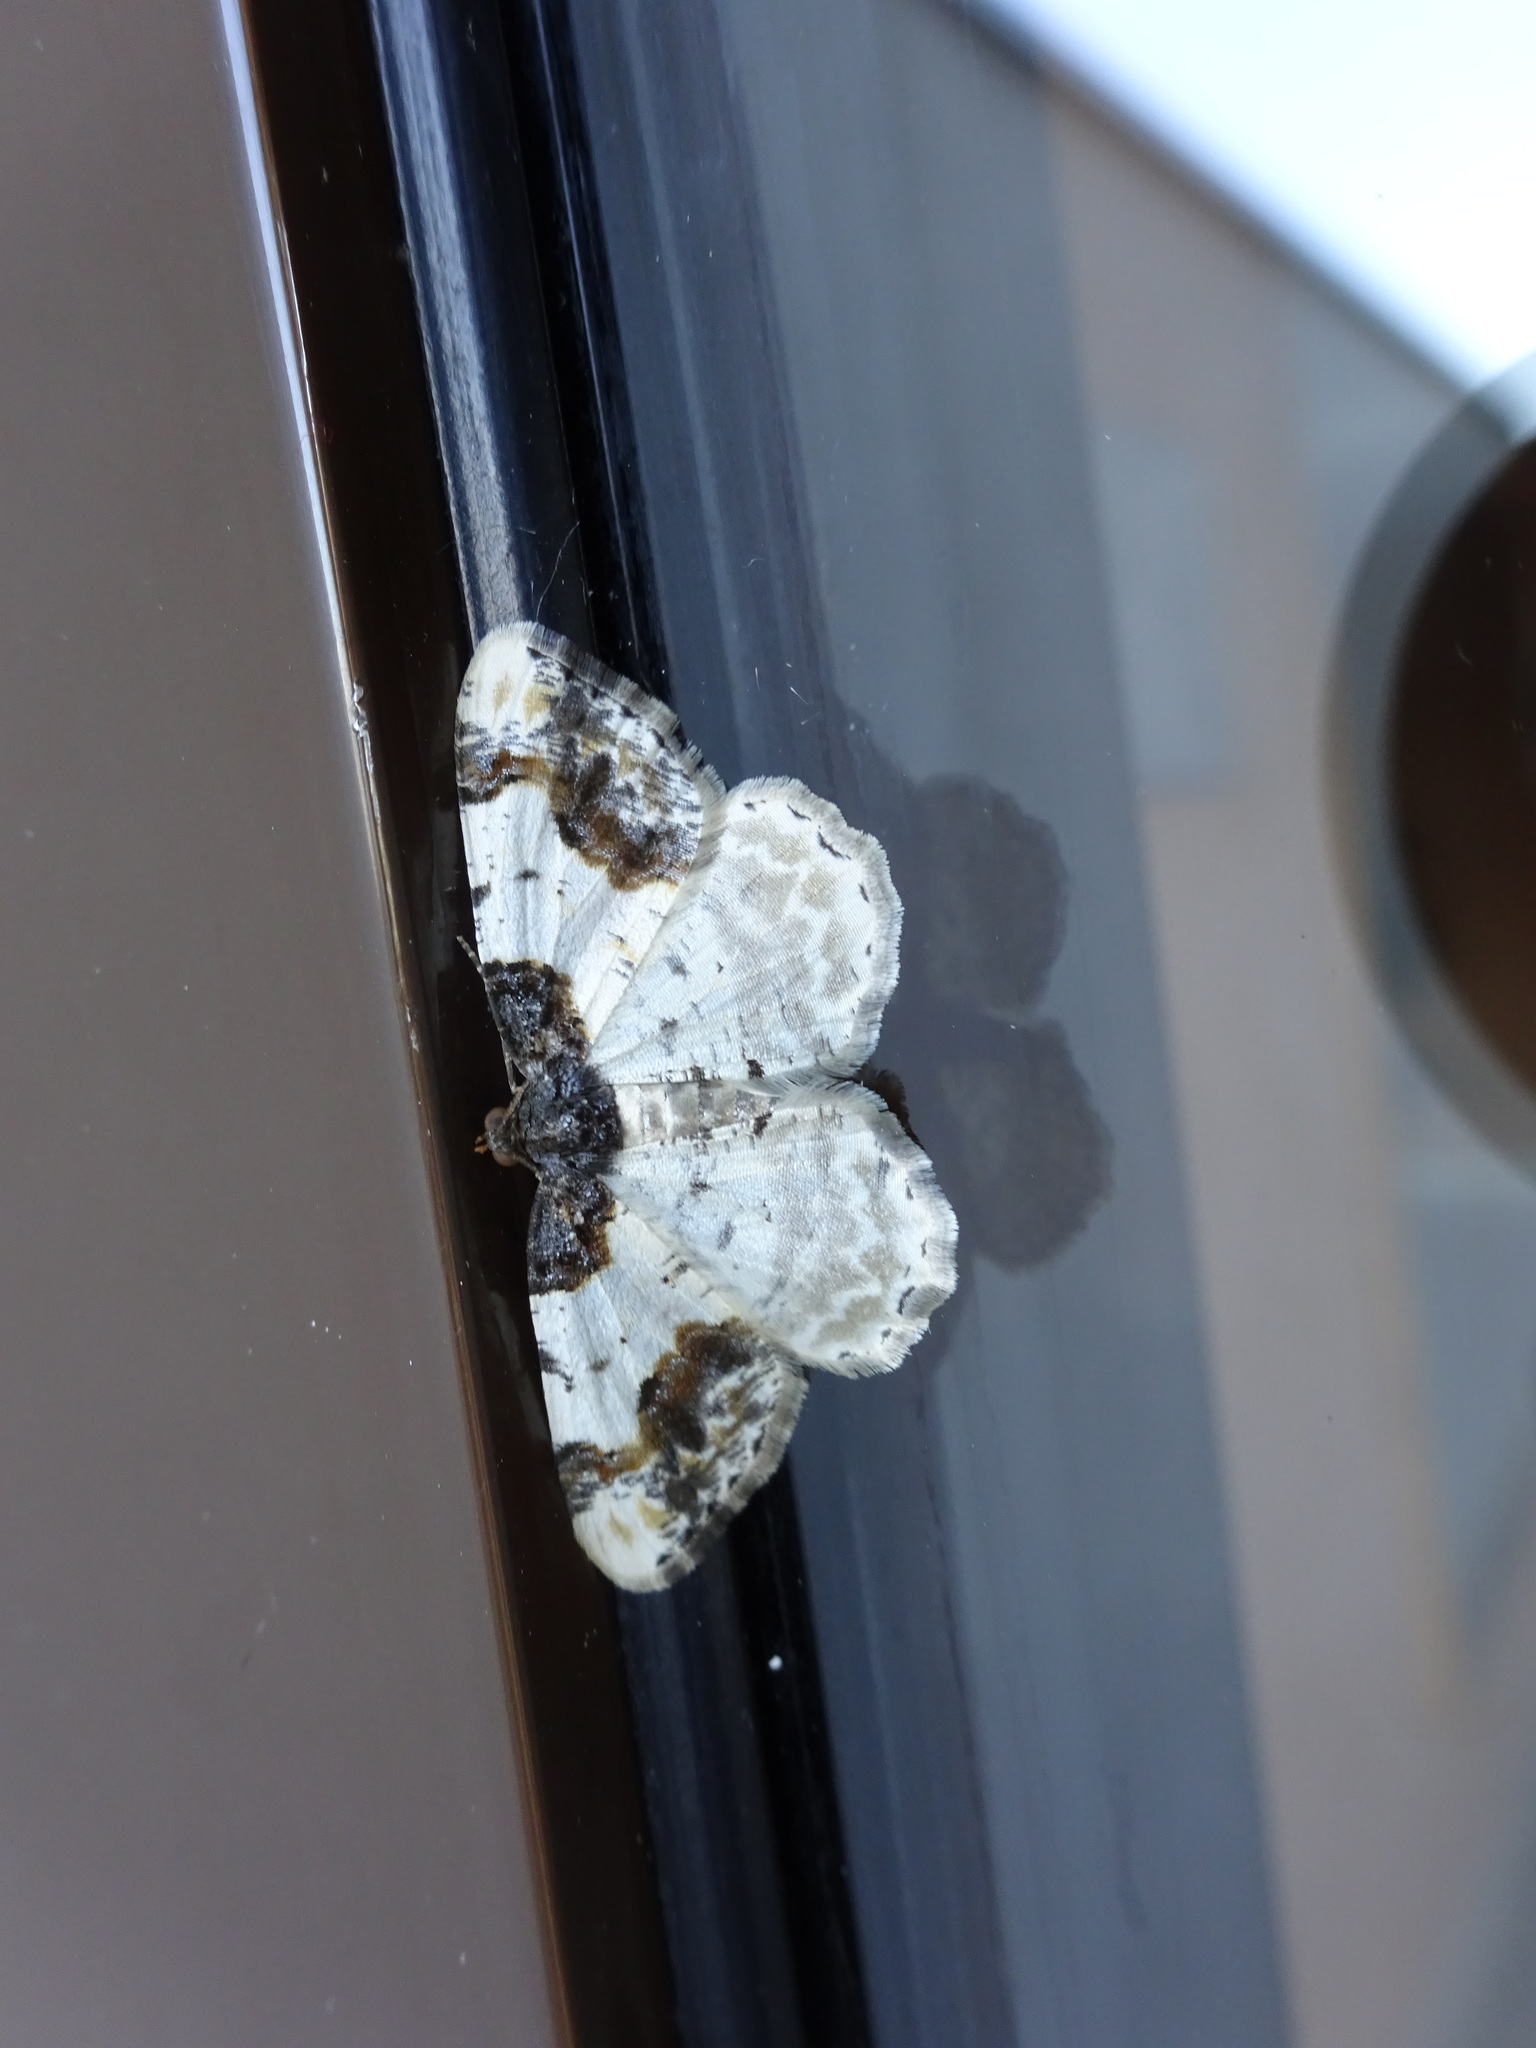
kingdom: Animalia
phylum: Arthropoda
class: Insecta
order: Lepidoptera
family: Geometridae
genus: Ligdia
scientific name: Ligdia adustata
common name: Scorched carpet
